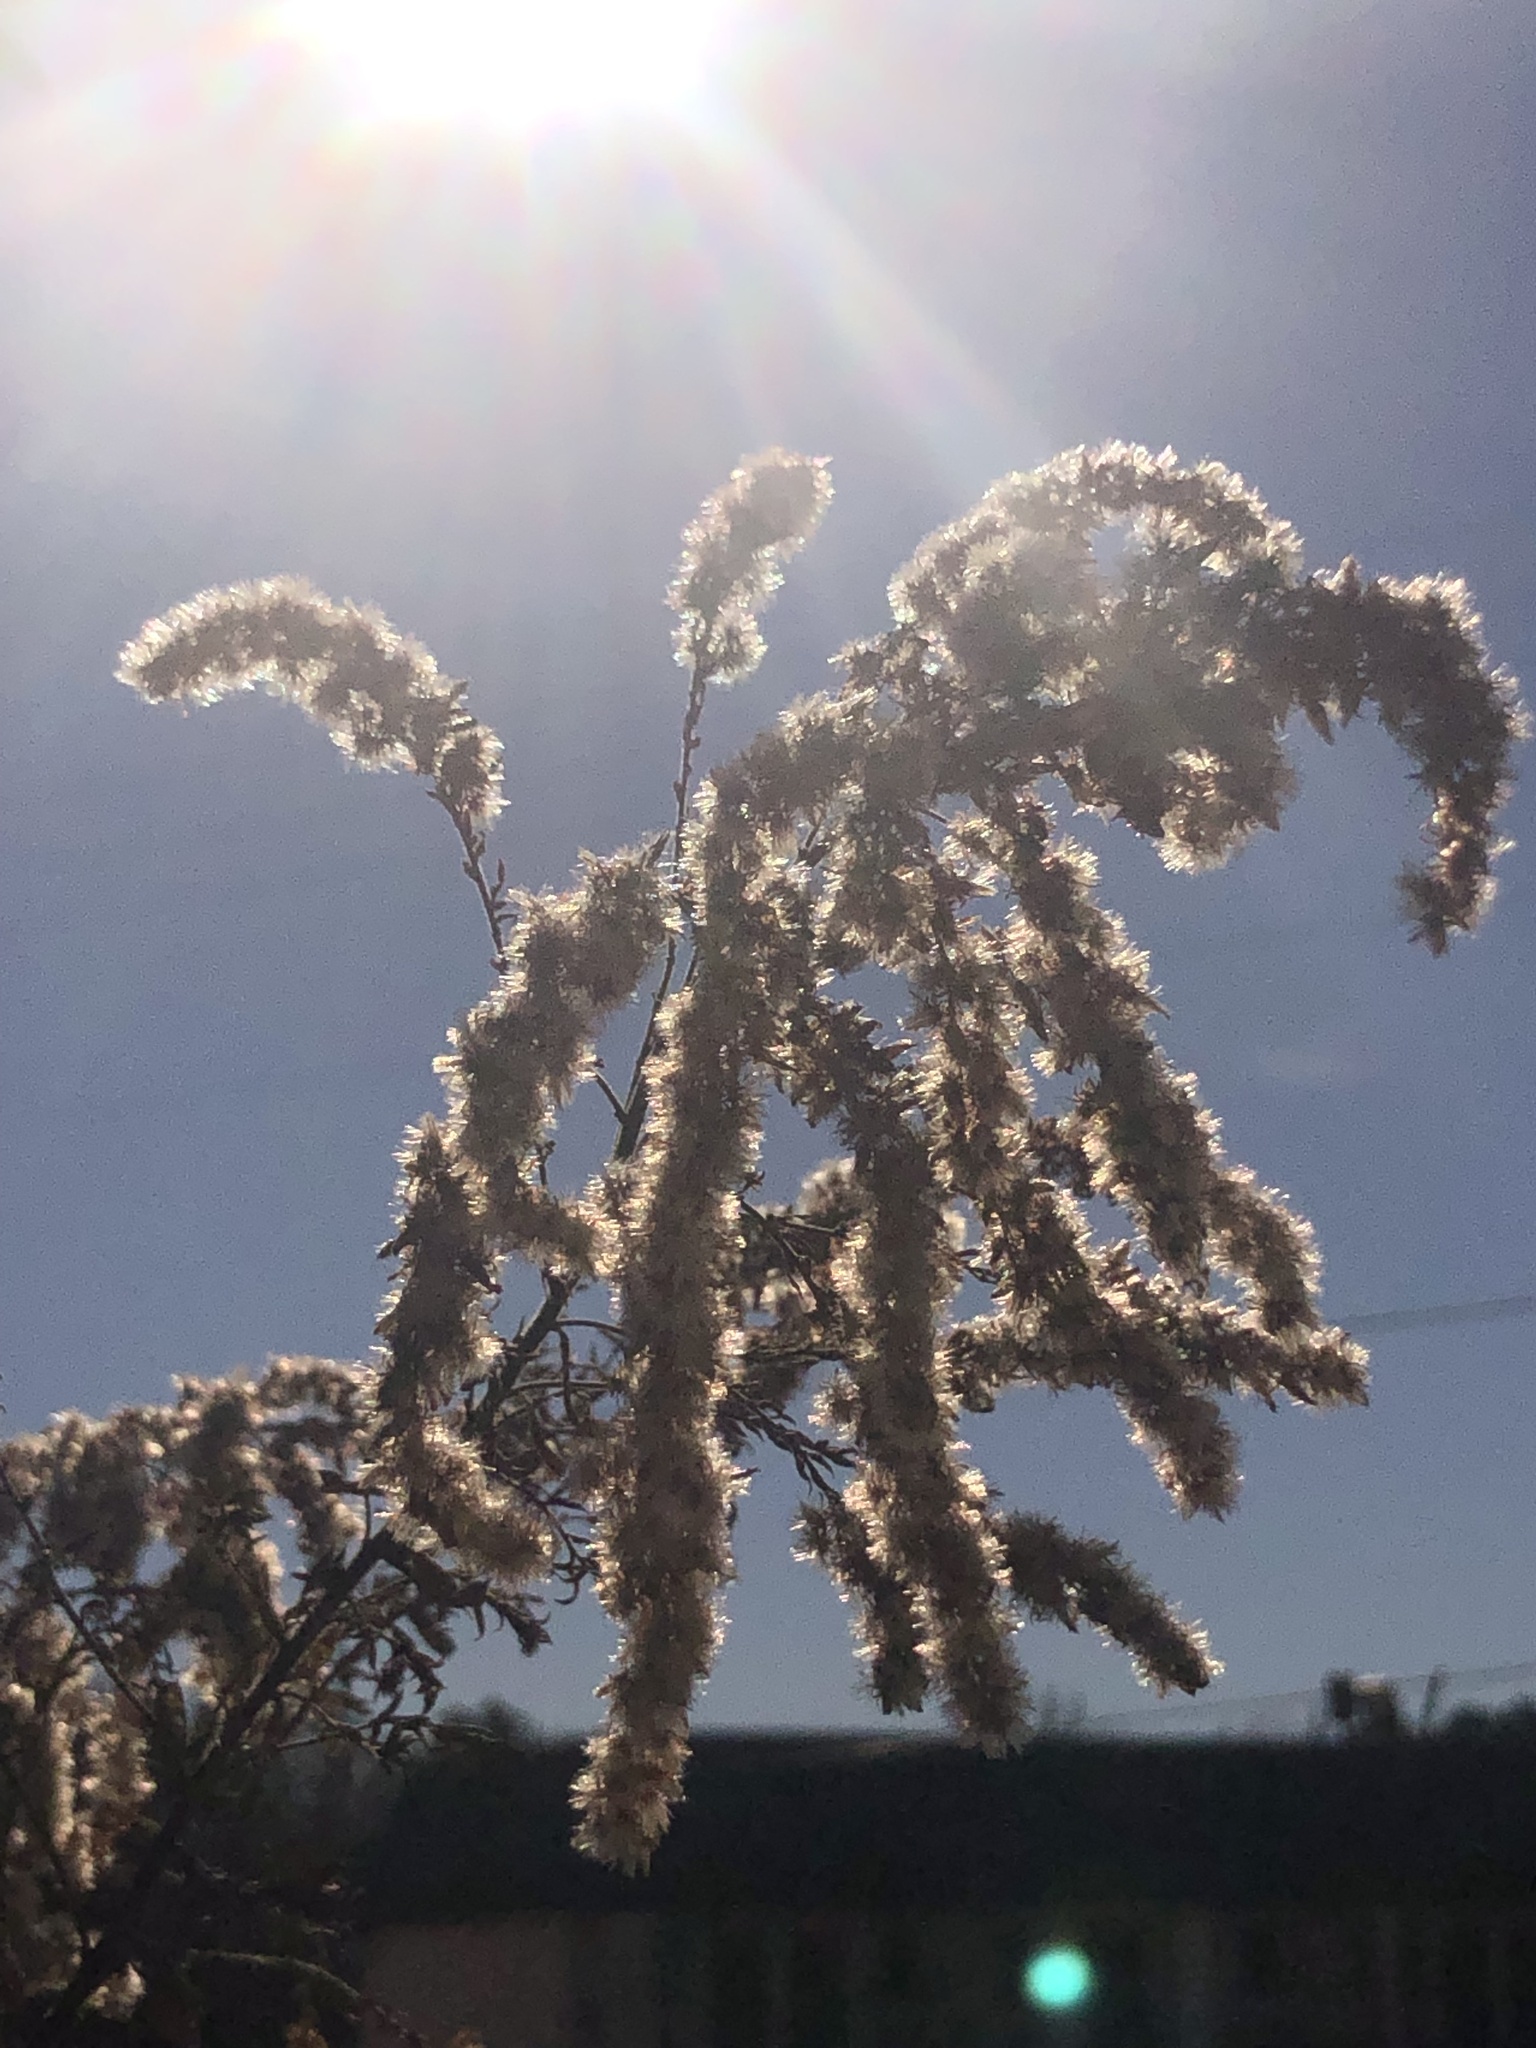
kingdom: Plantae
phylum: Tracheophyta
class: Magnoliopsida
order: Asterales
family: Asteraceae
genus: Solidago
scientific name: Solidago altissima
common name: Late goldenrod
